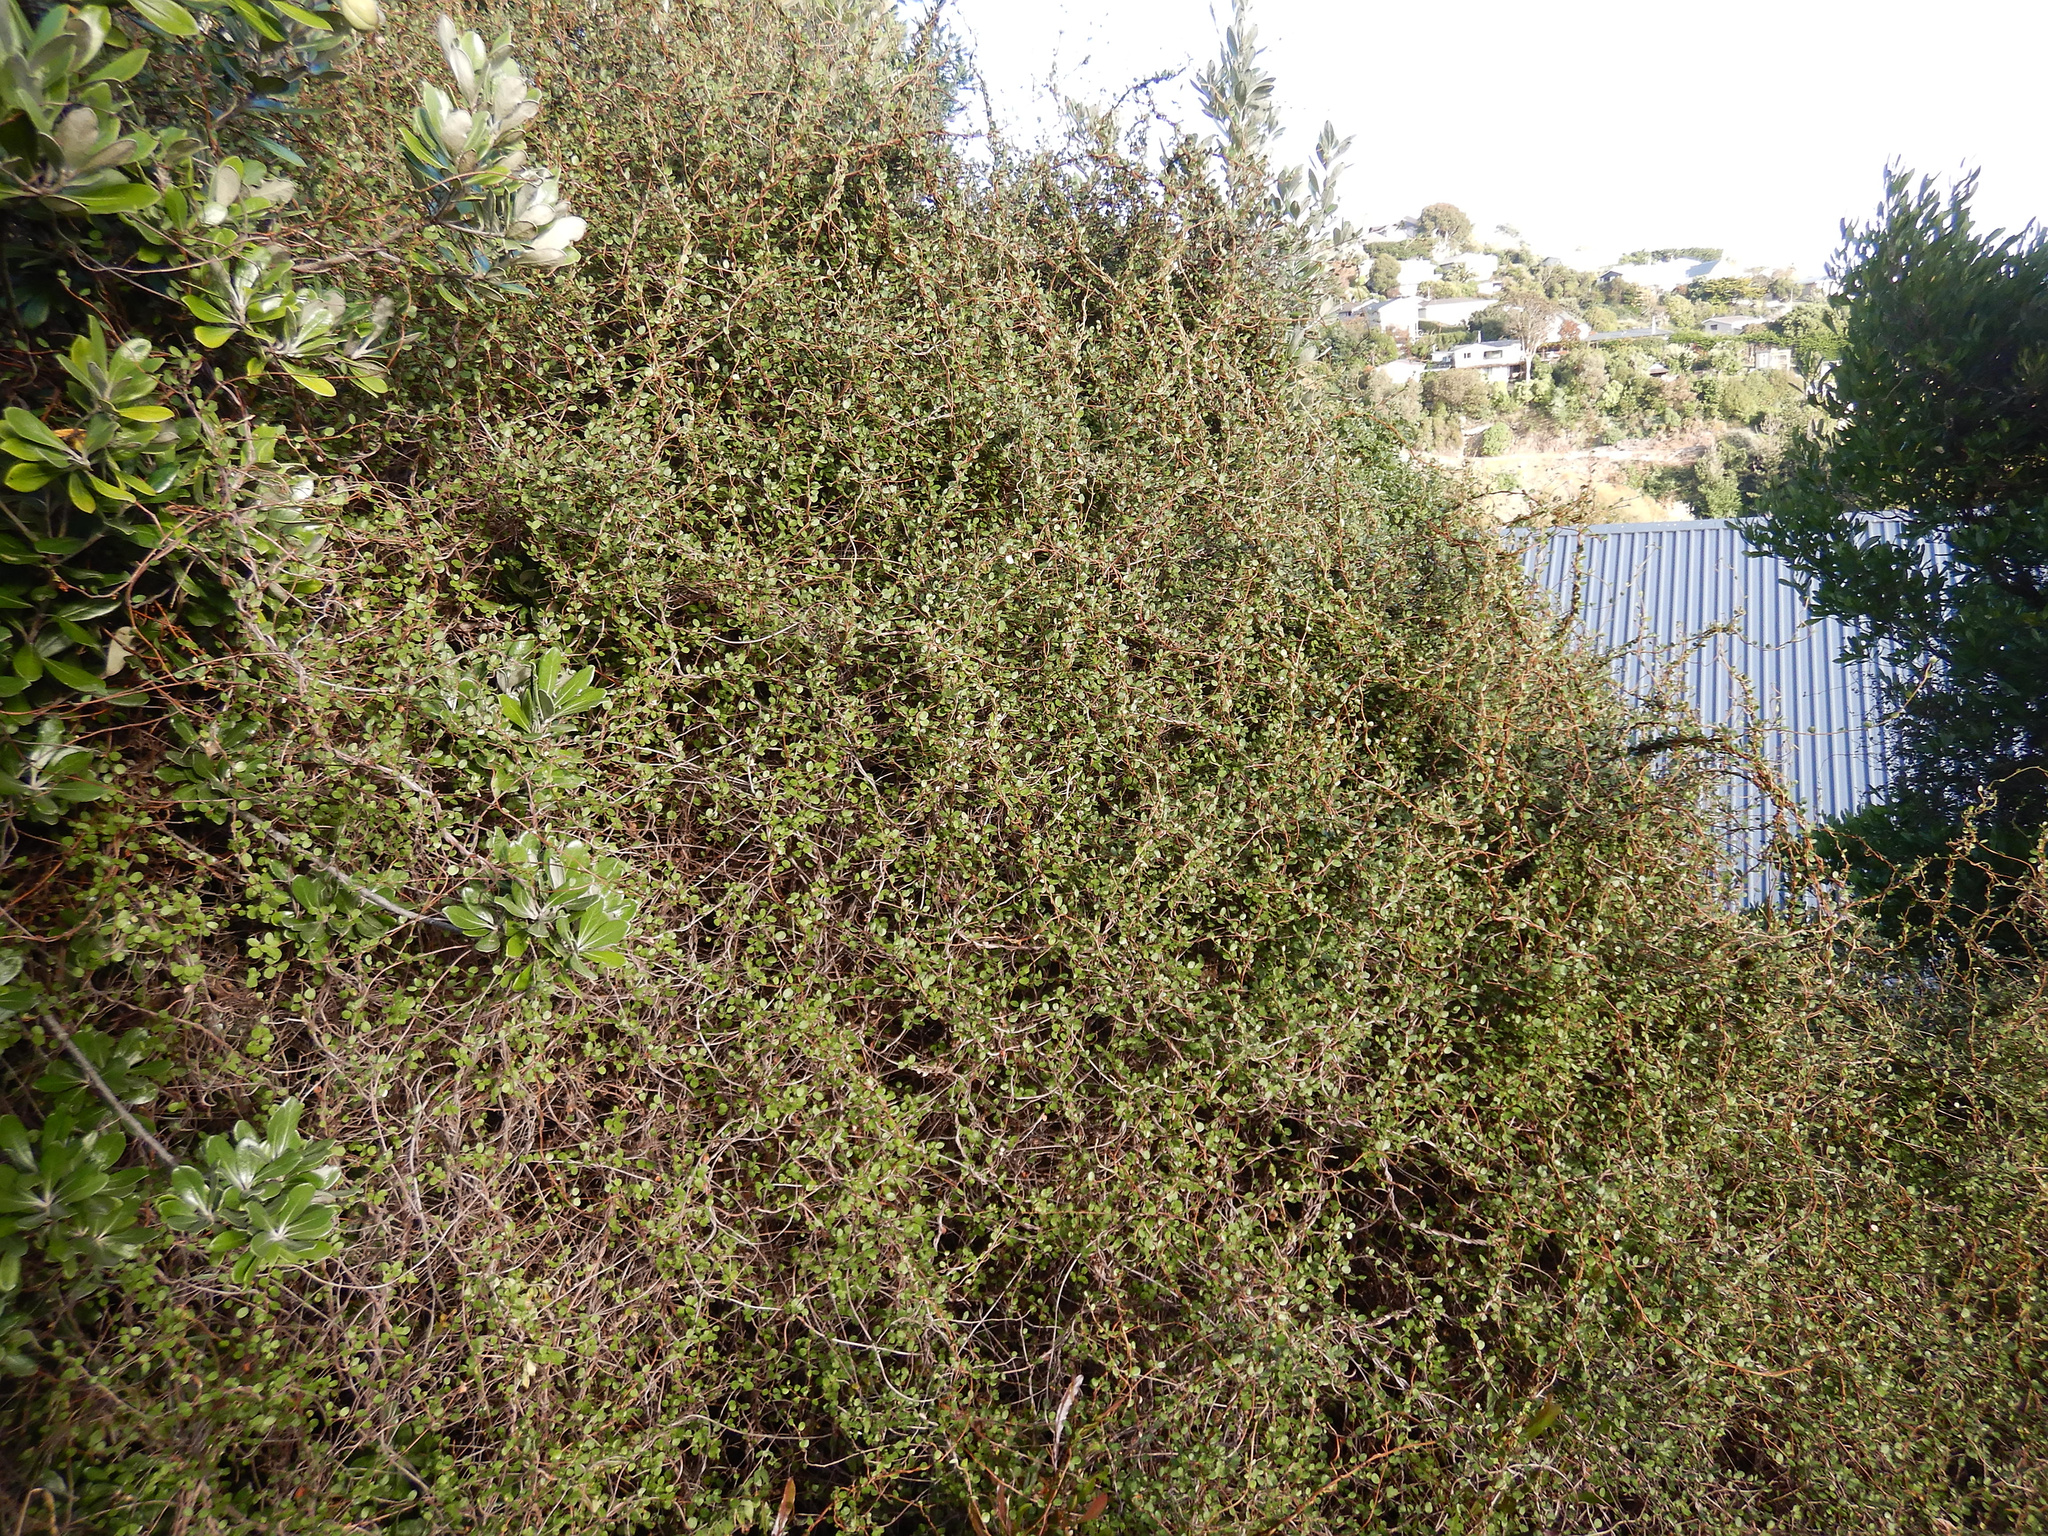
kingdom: Plantae
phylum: Tracheophyta
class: Magnoliopsida
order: Caryophyllales
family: Polygonaceae
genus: Muehlenbeckia
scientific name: Muehlenbeckia complexa
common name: Wireplant
